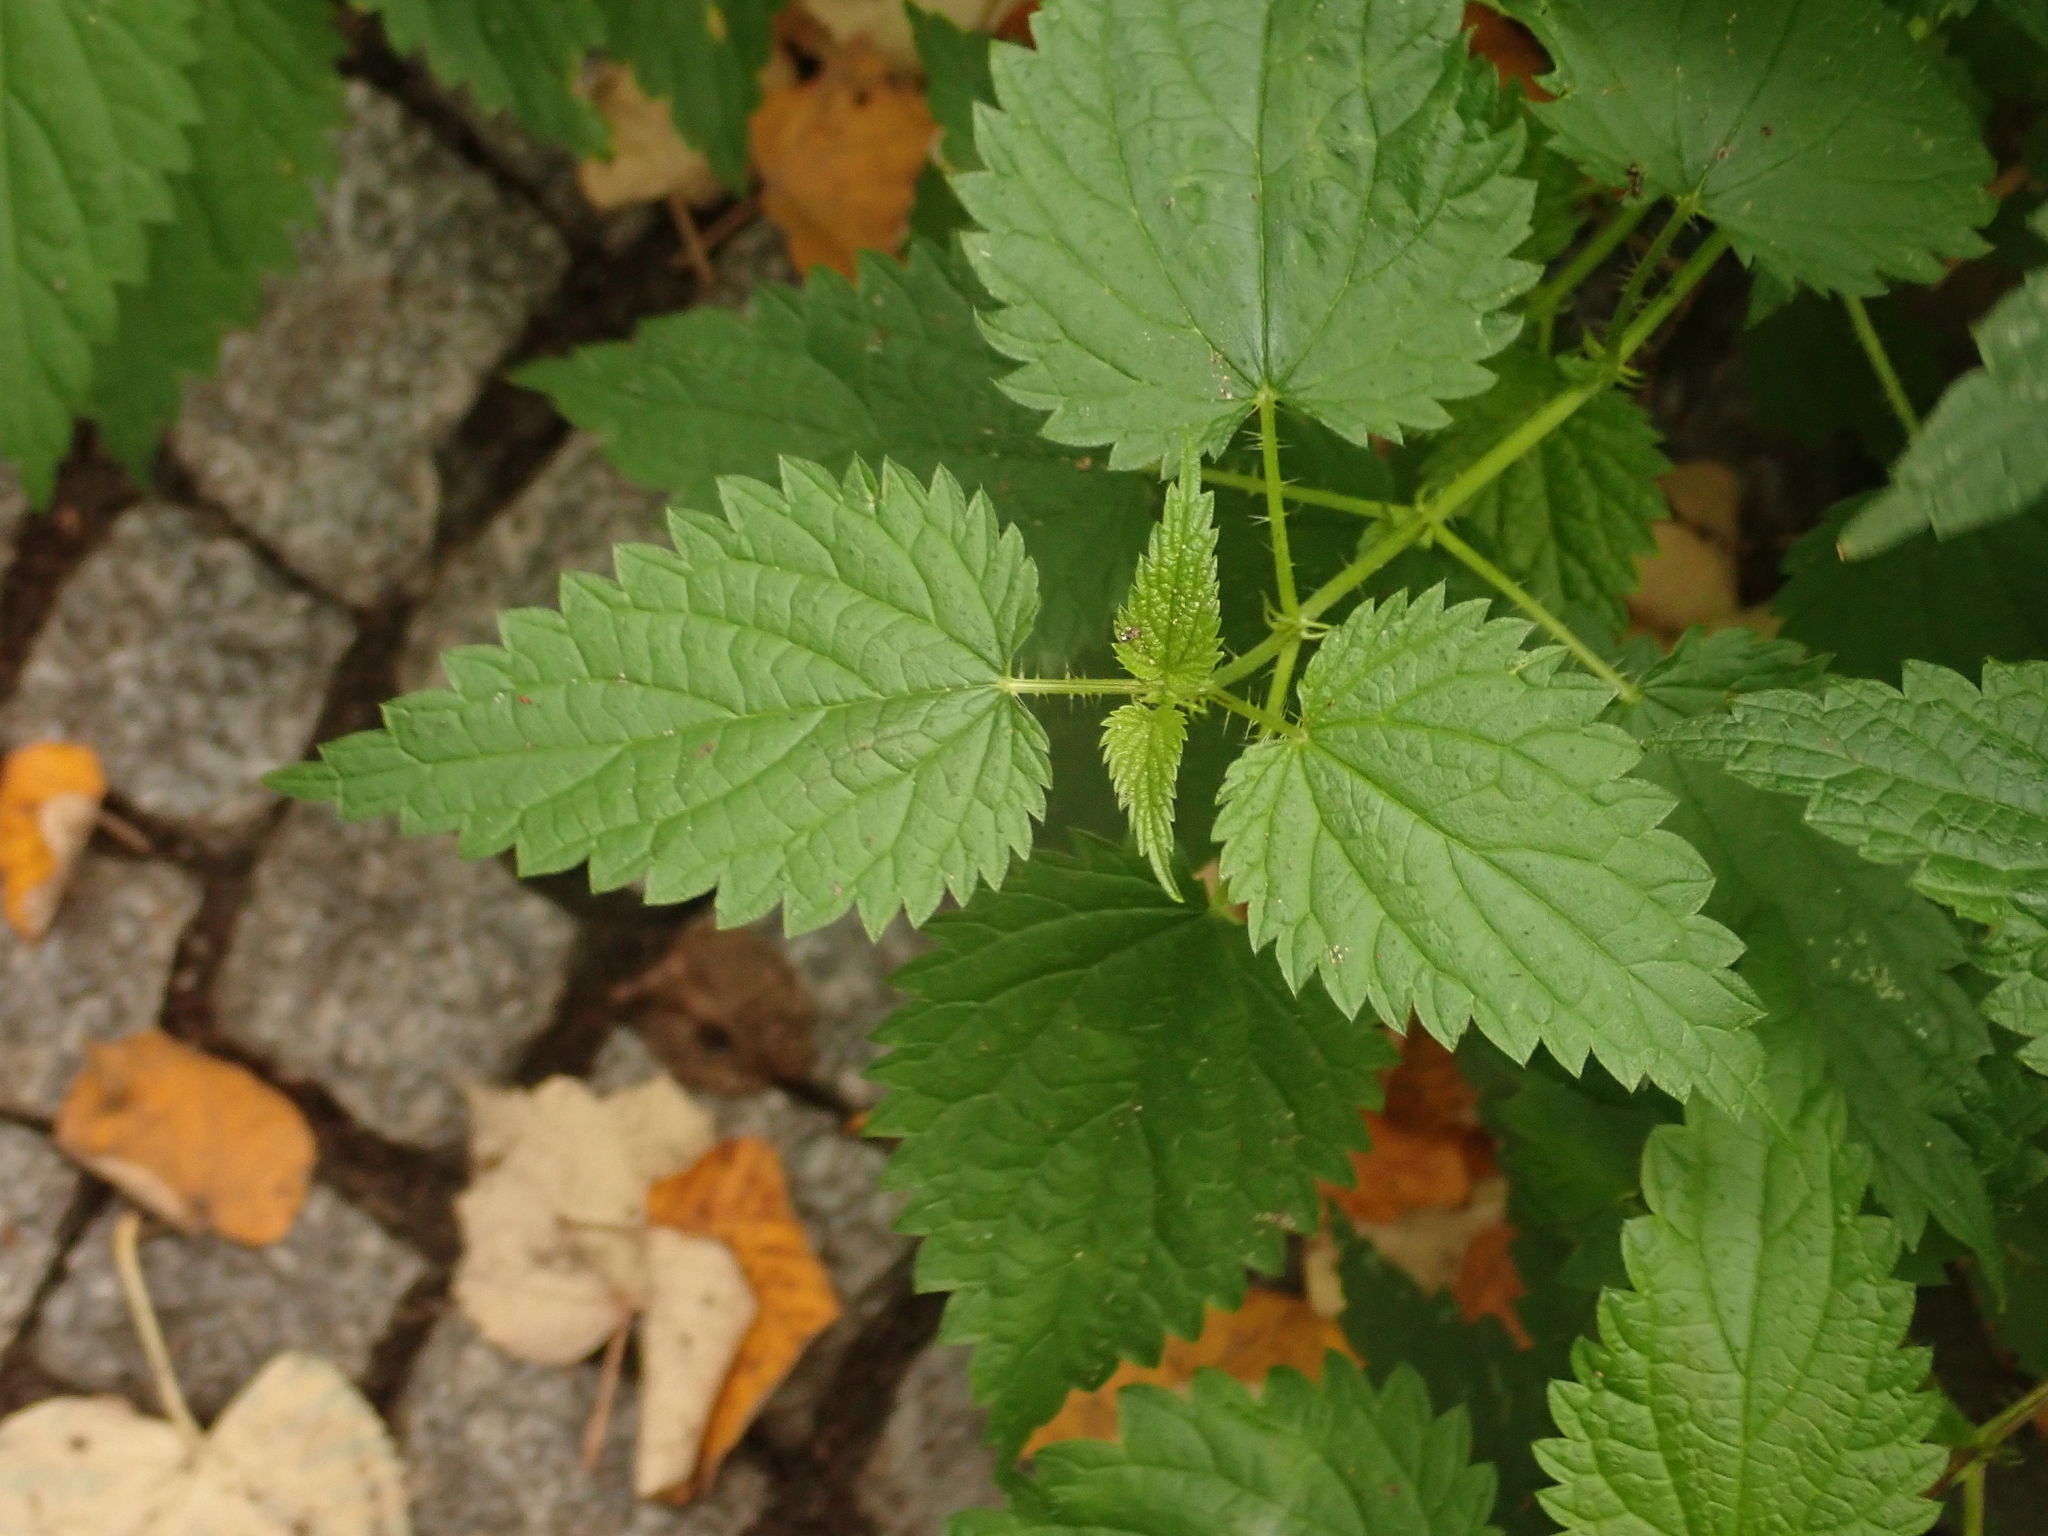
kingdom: Plantae
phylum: Tracheophyta
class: Magnoliopsida
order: Rosales
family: Urticaceae
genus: Urtica
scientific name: Urtica dioica
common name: Common nettle
